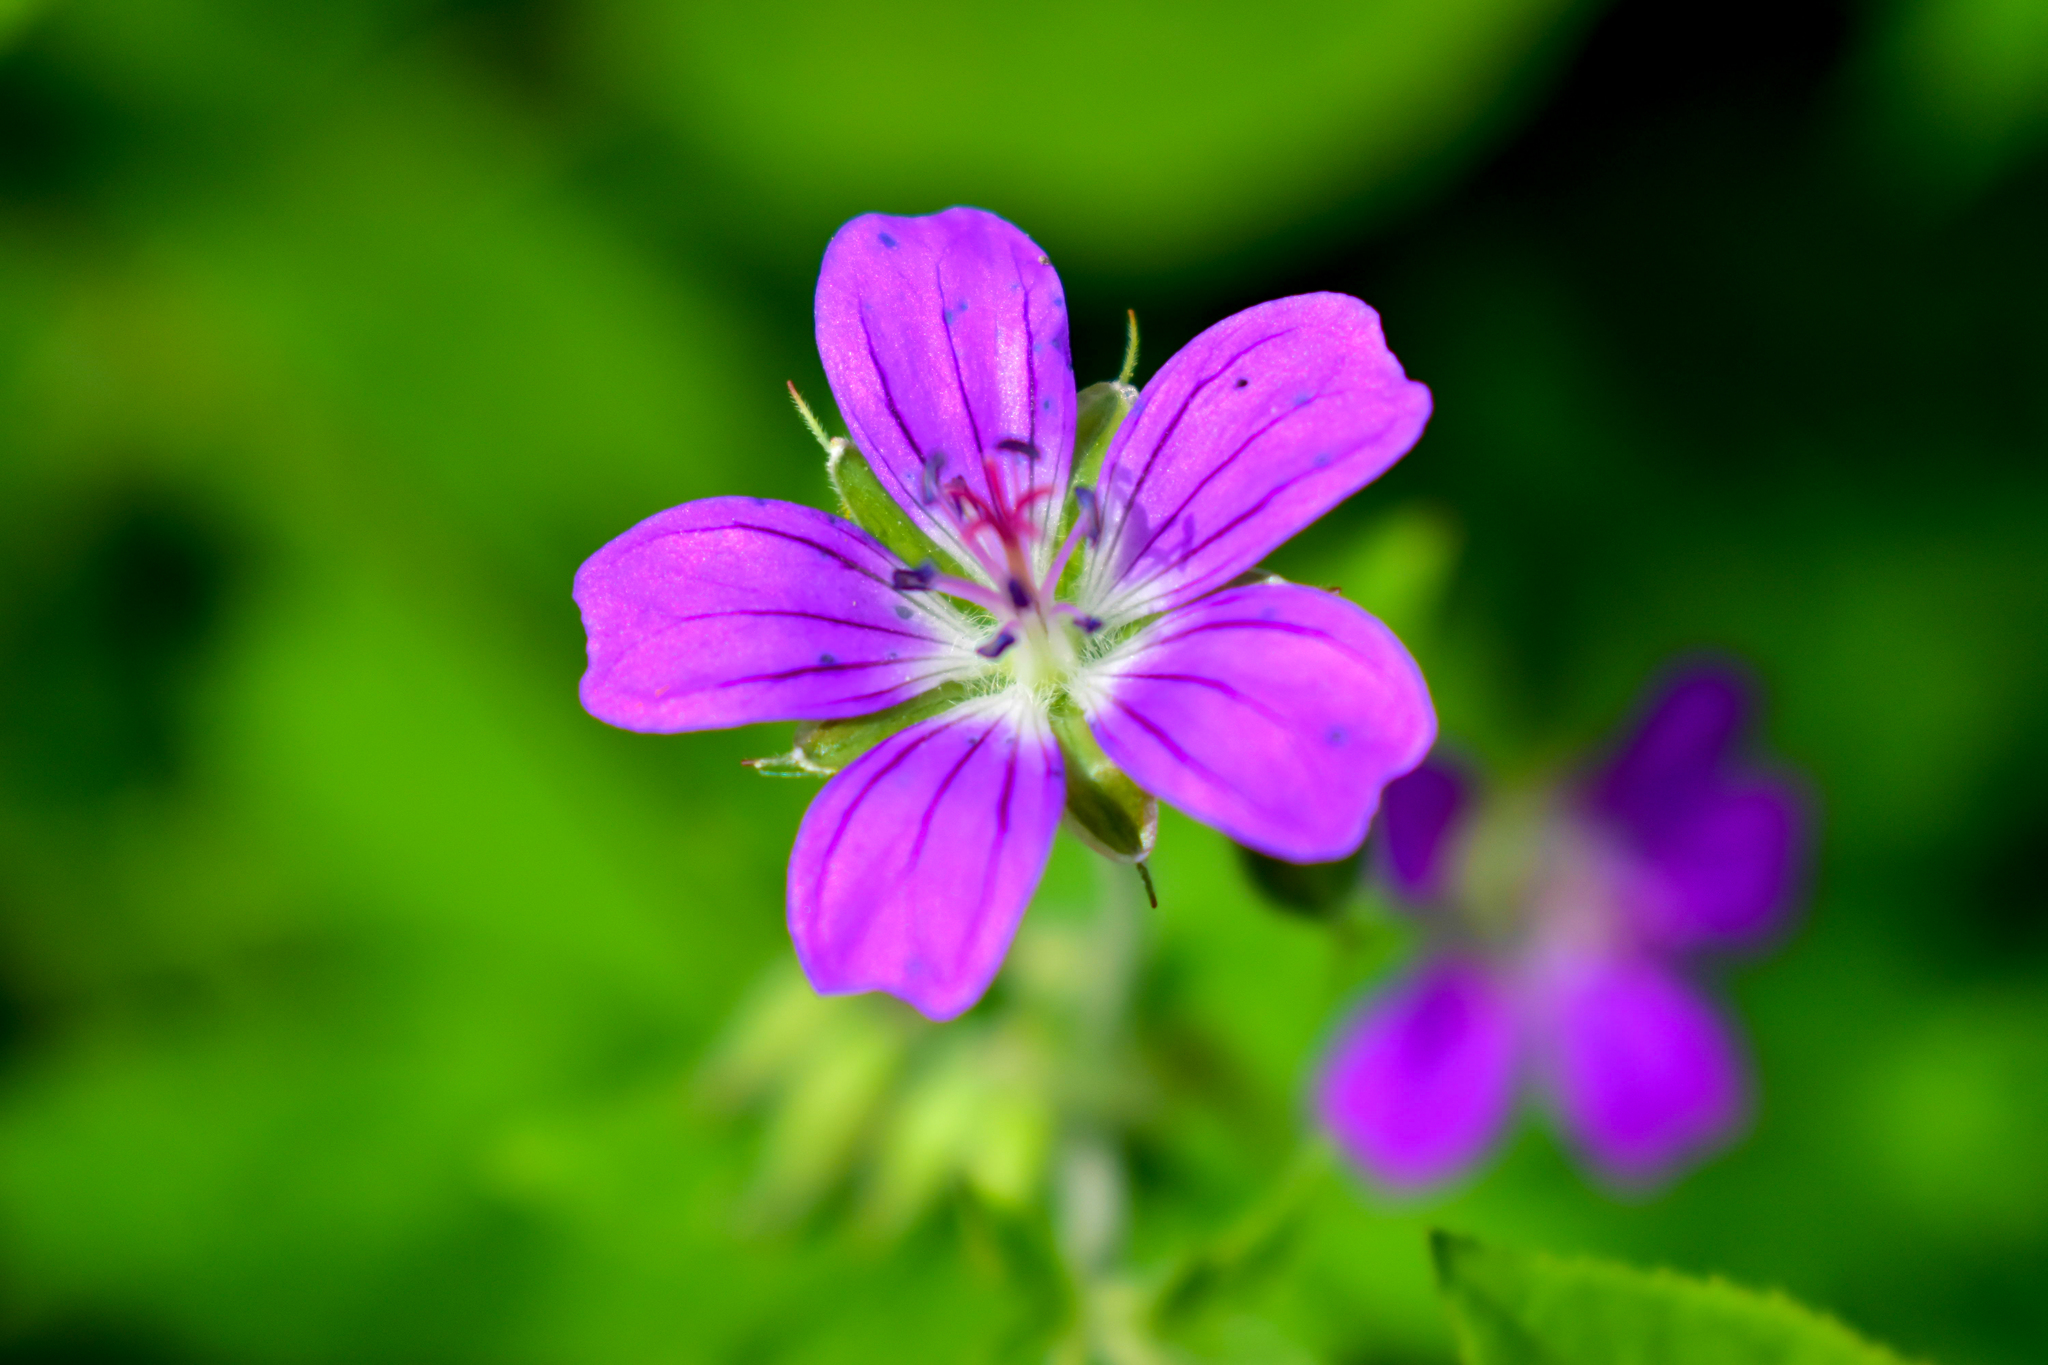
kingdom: Plantae
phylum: Tracheophyta
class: Magnoliopsida
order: Geraniales
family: Geraniaceae
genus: Geranium
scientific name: Geranium sylvaticum
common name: Wood crane's-bill
